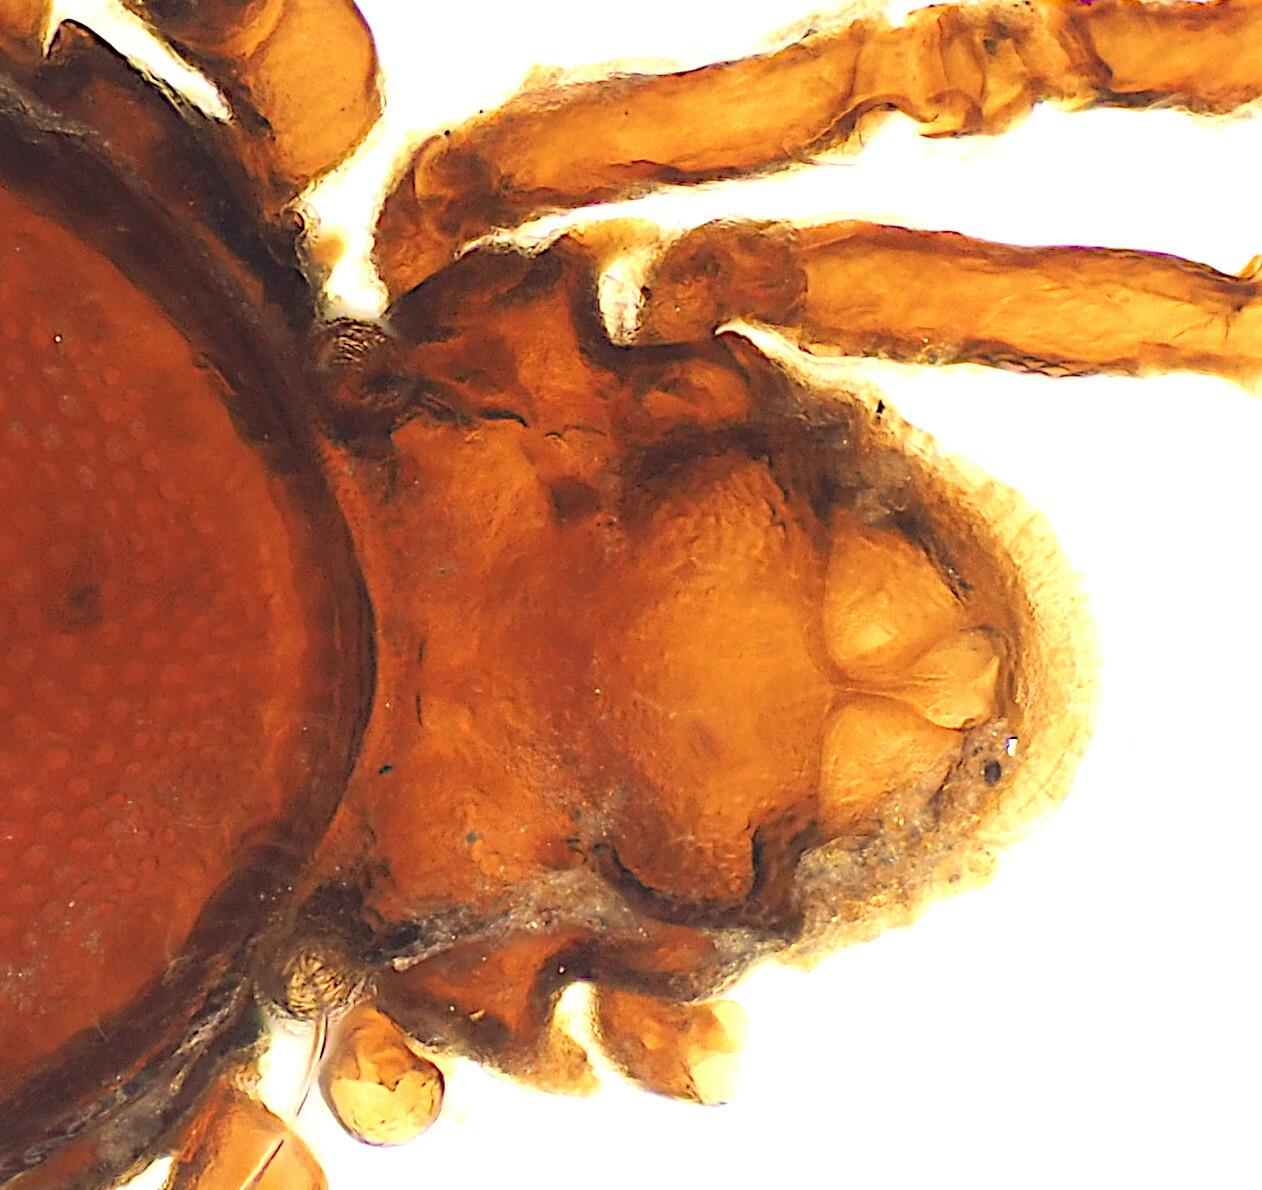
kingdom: Animalia
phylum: Arthropoda
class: Arachnida
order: Sarcoptiformes
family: Pheroliodidae
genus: Pheroliodes
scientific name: Pheroliodes monteithi
